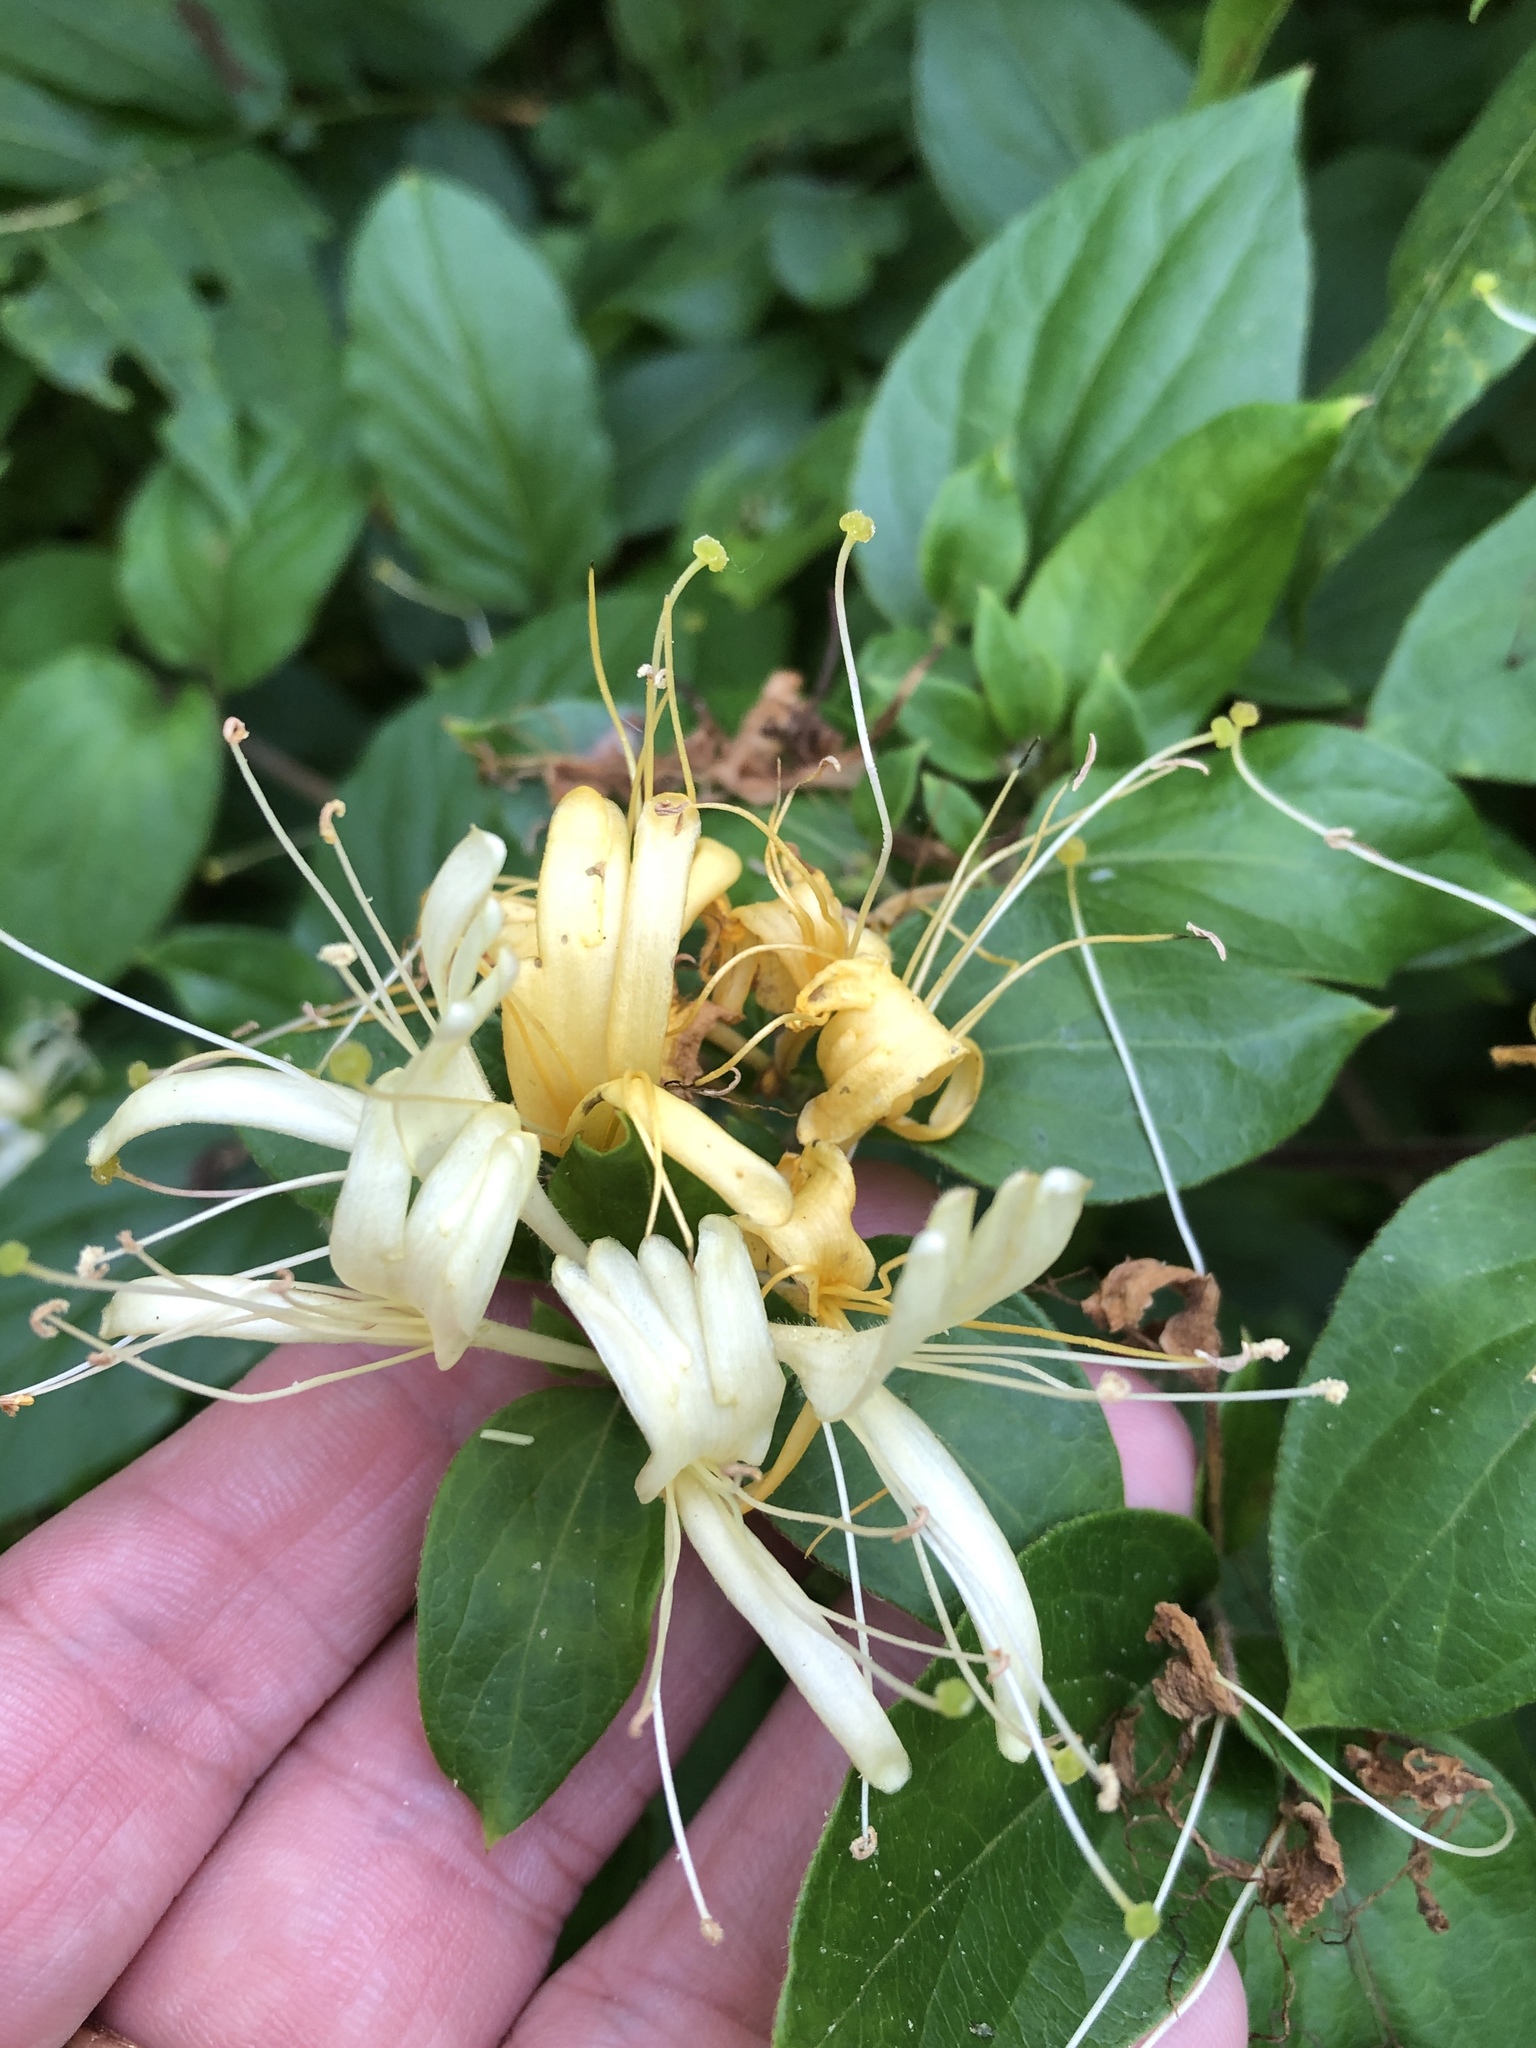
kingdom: Plantae
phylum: Tracheophyta
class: Magnoliopsida
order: Dipsacales
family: Caprifoliaceae
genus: Lonicera
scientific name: Lonicera japonica
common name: Japanese honeysuckle
